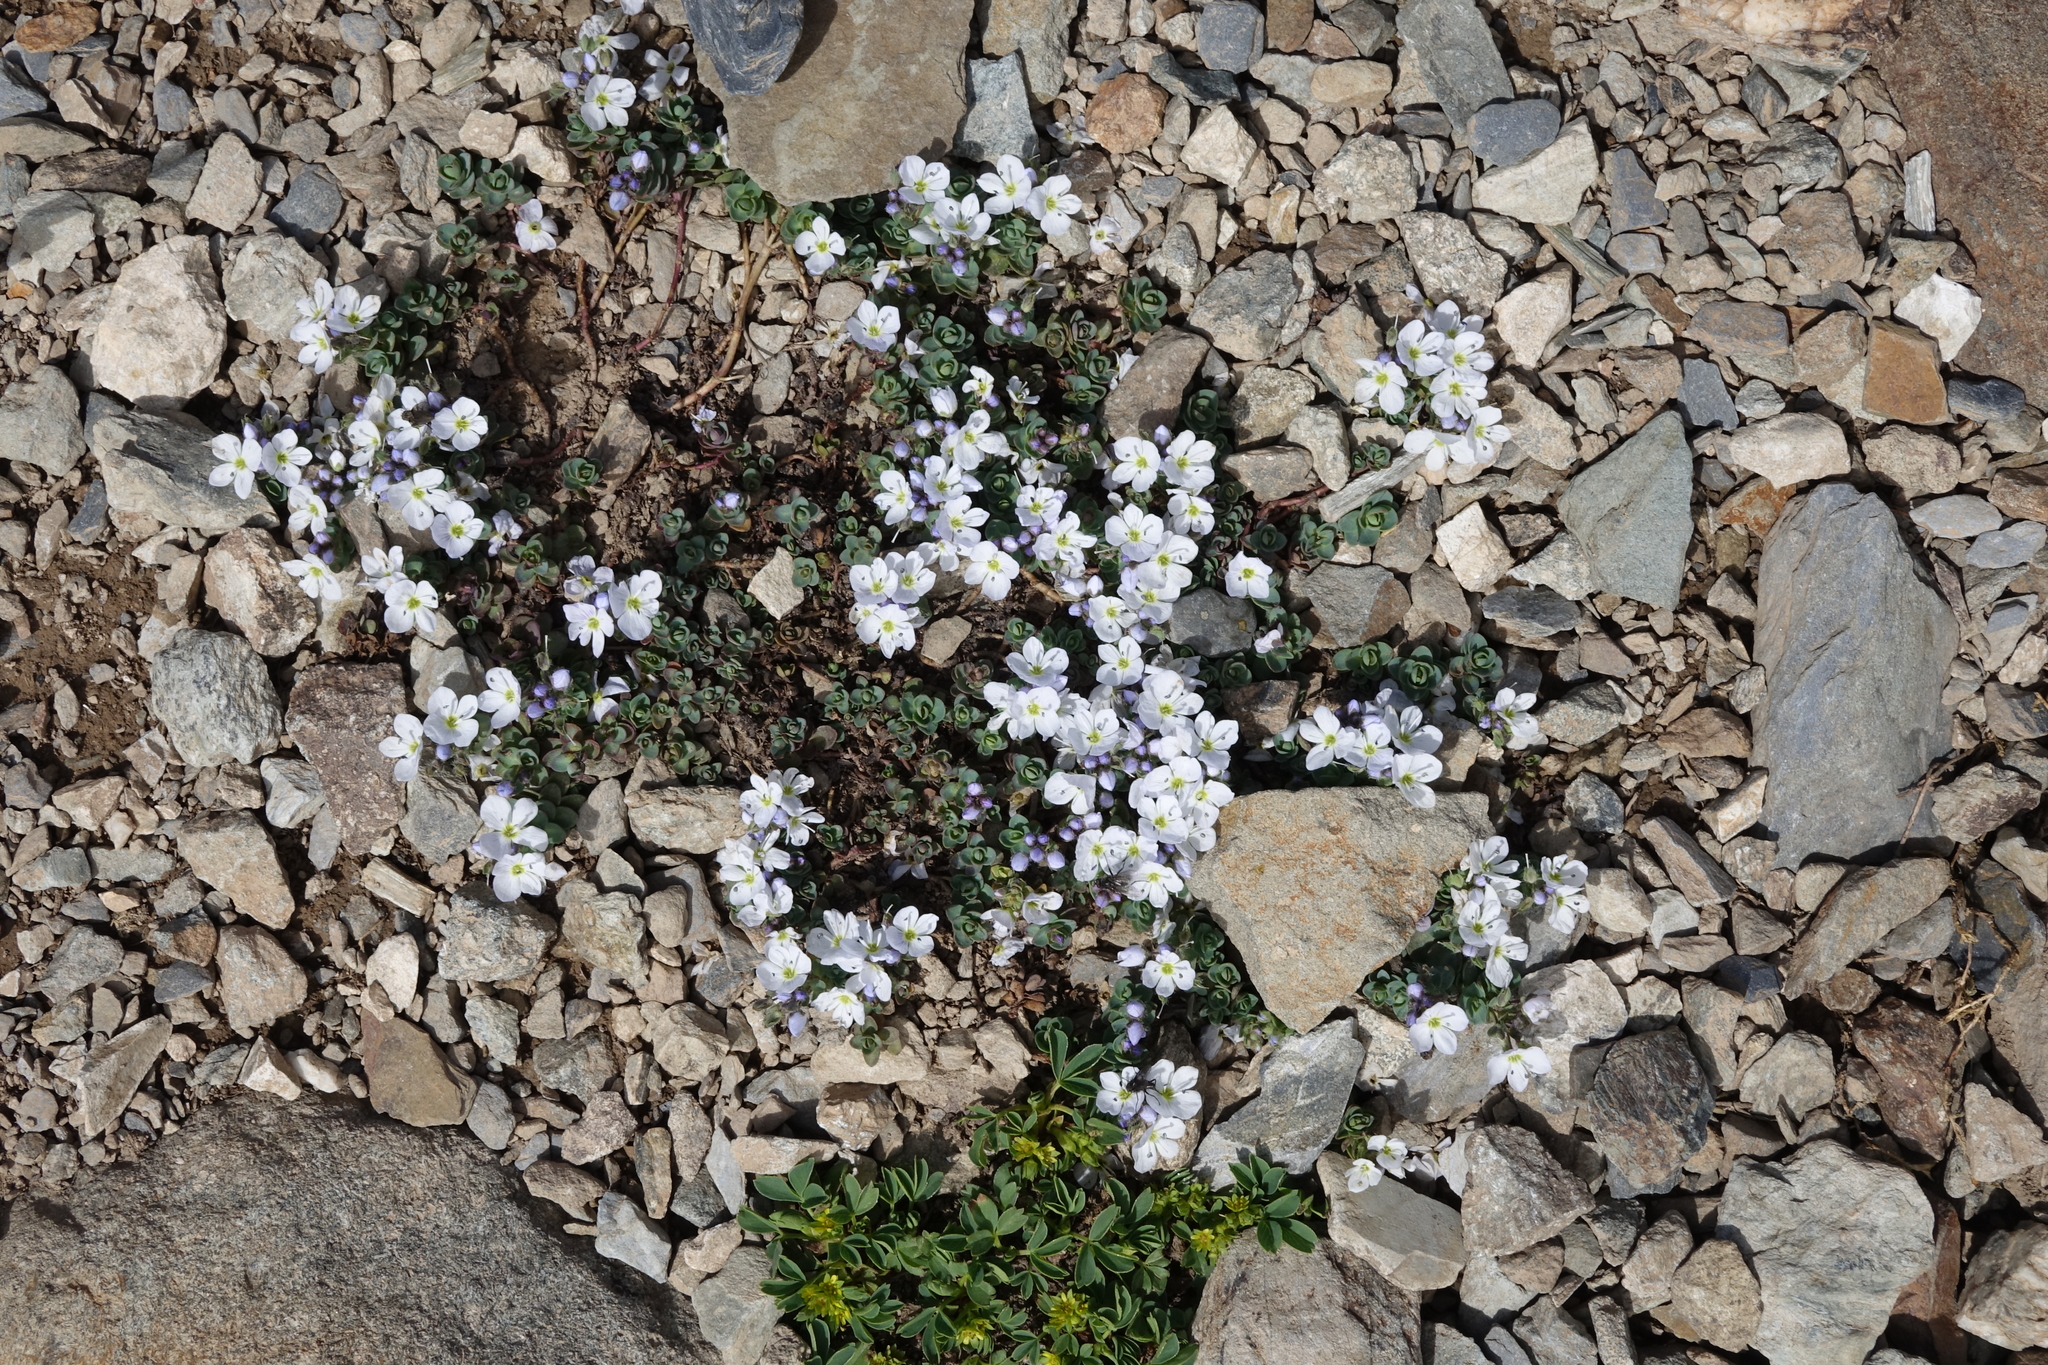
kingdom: Plantae
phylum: Tracheophyta
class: Magnoliopsida
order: Lamiales
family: Plantaginaceae
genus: Veronica
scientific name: Veronica telephiifolia
